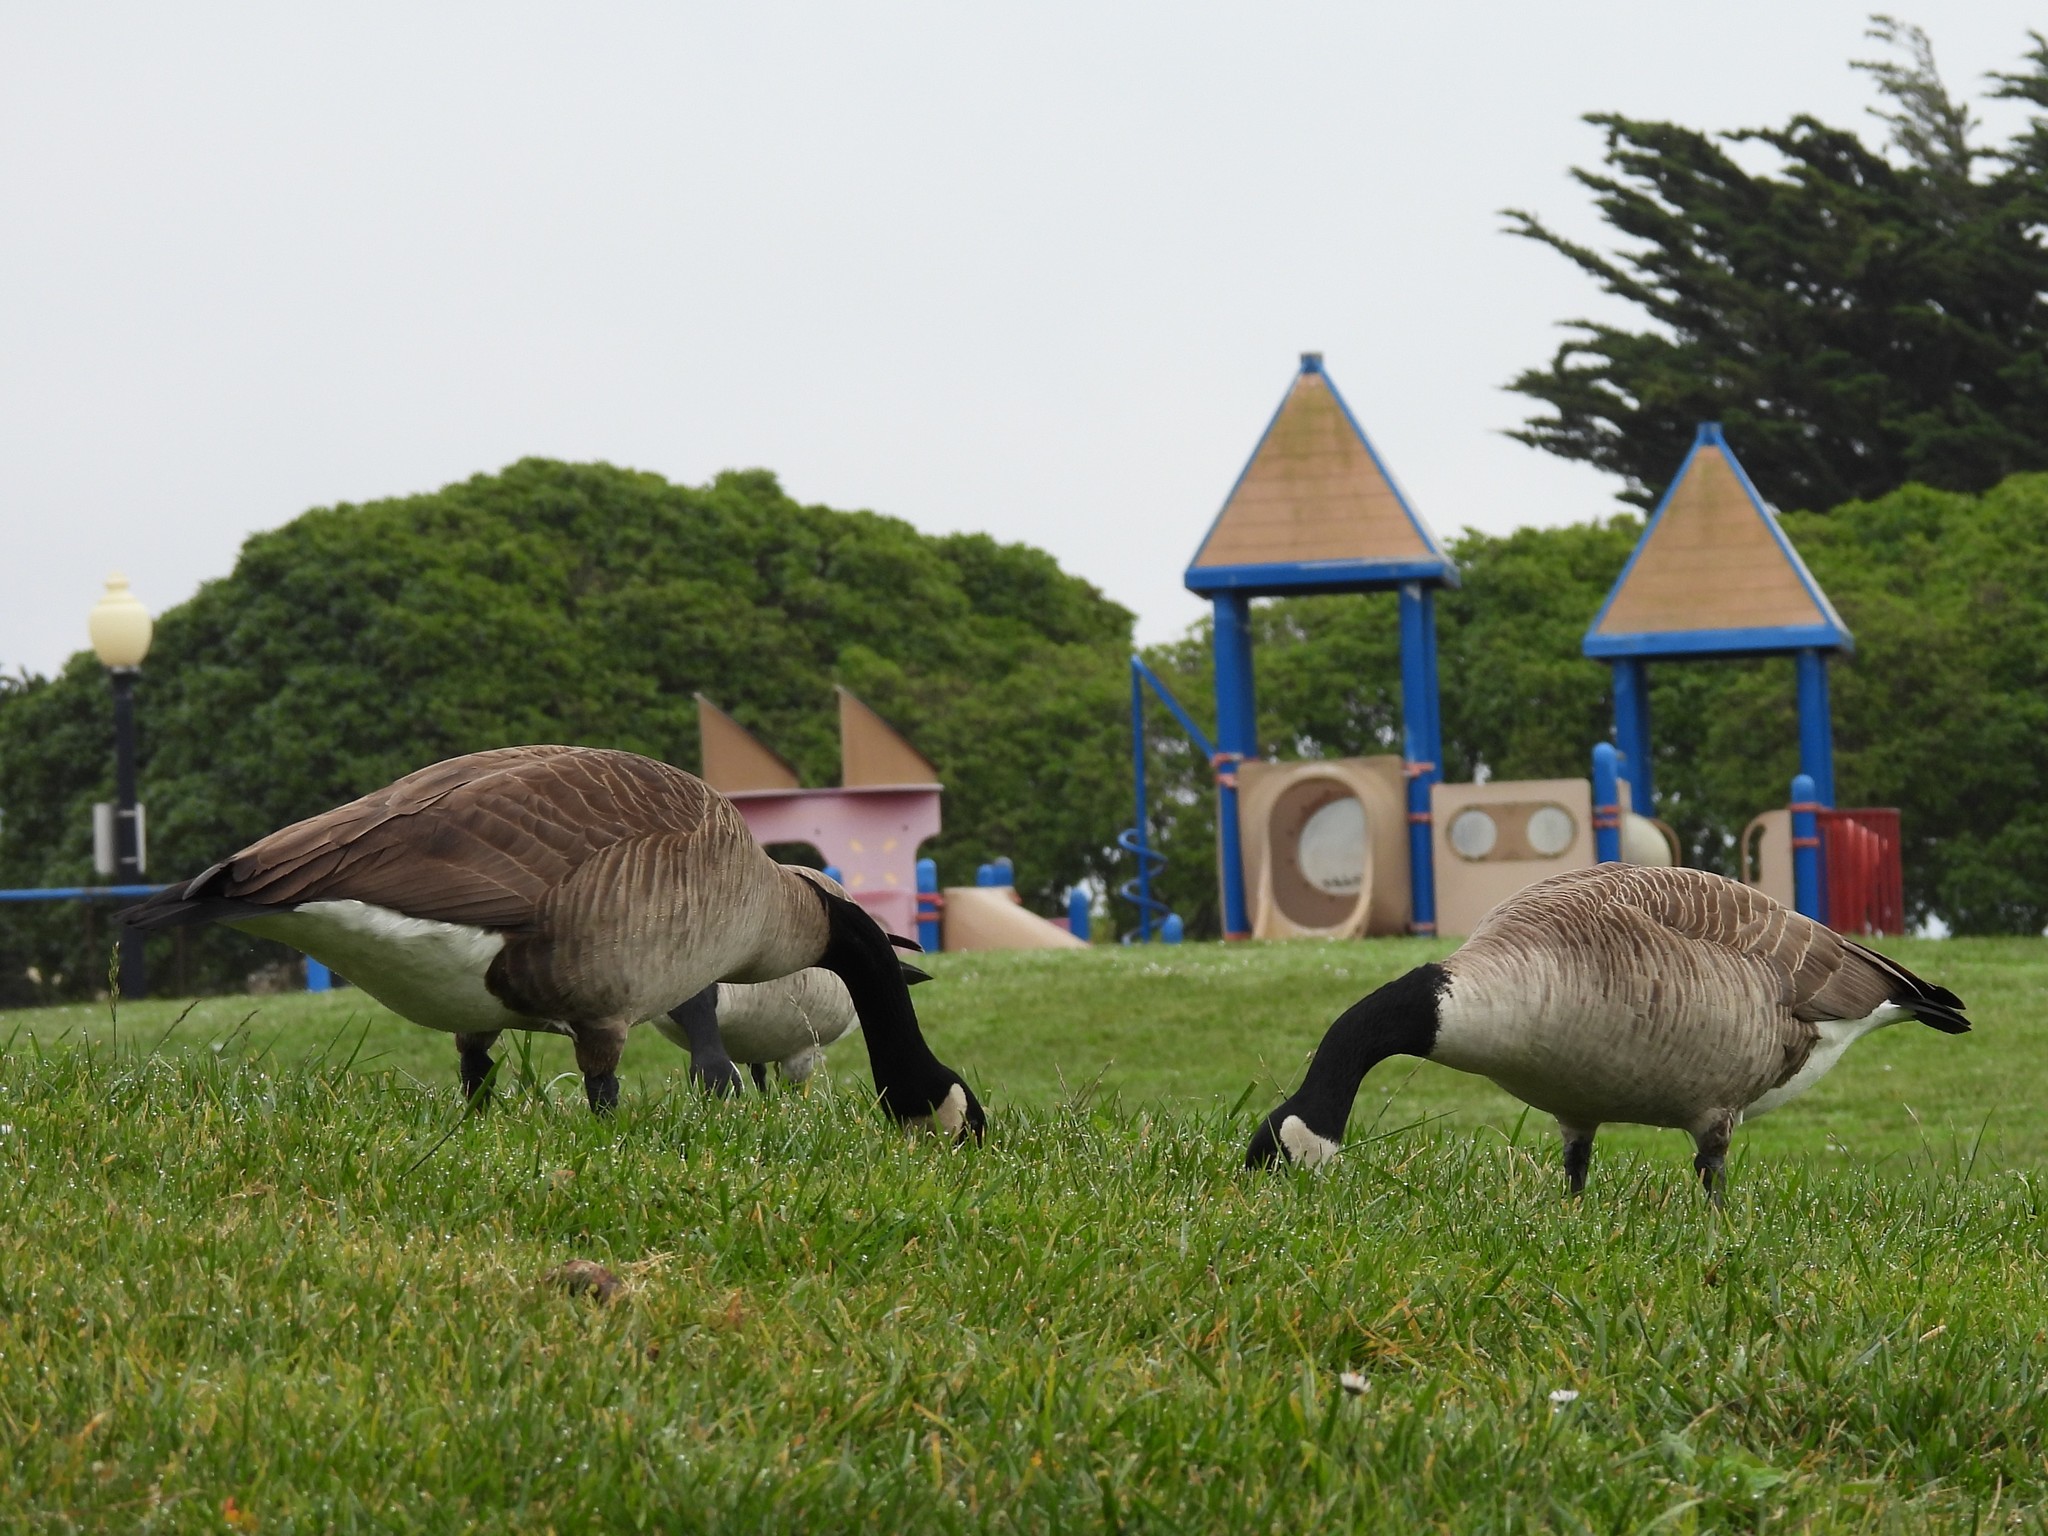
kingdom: Animalia
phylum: Chordata
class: Aves
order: Anseriformes
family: Anatidae
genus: Branta
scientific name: Branta canadensis
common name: Canada goose
